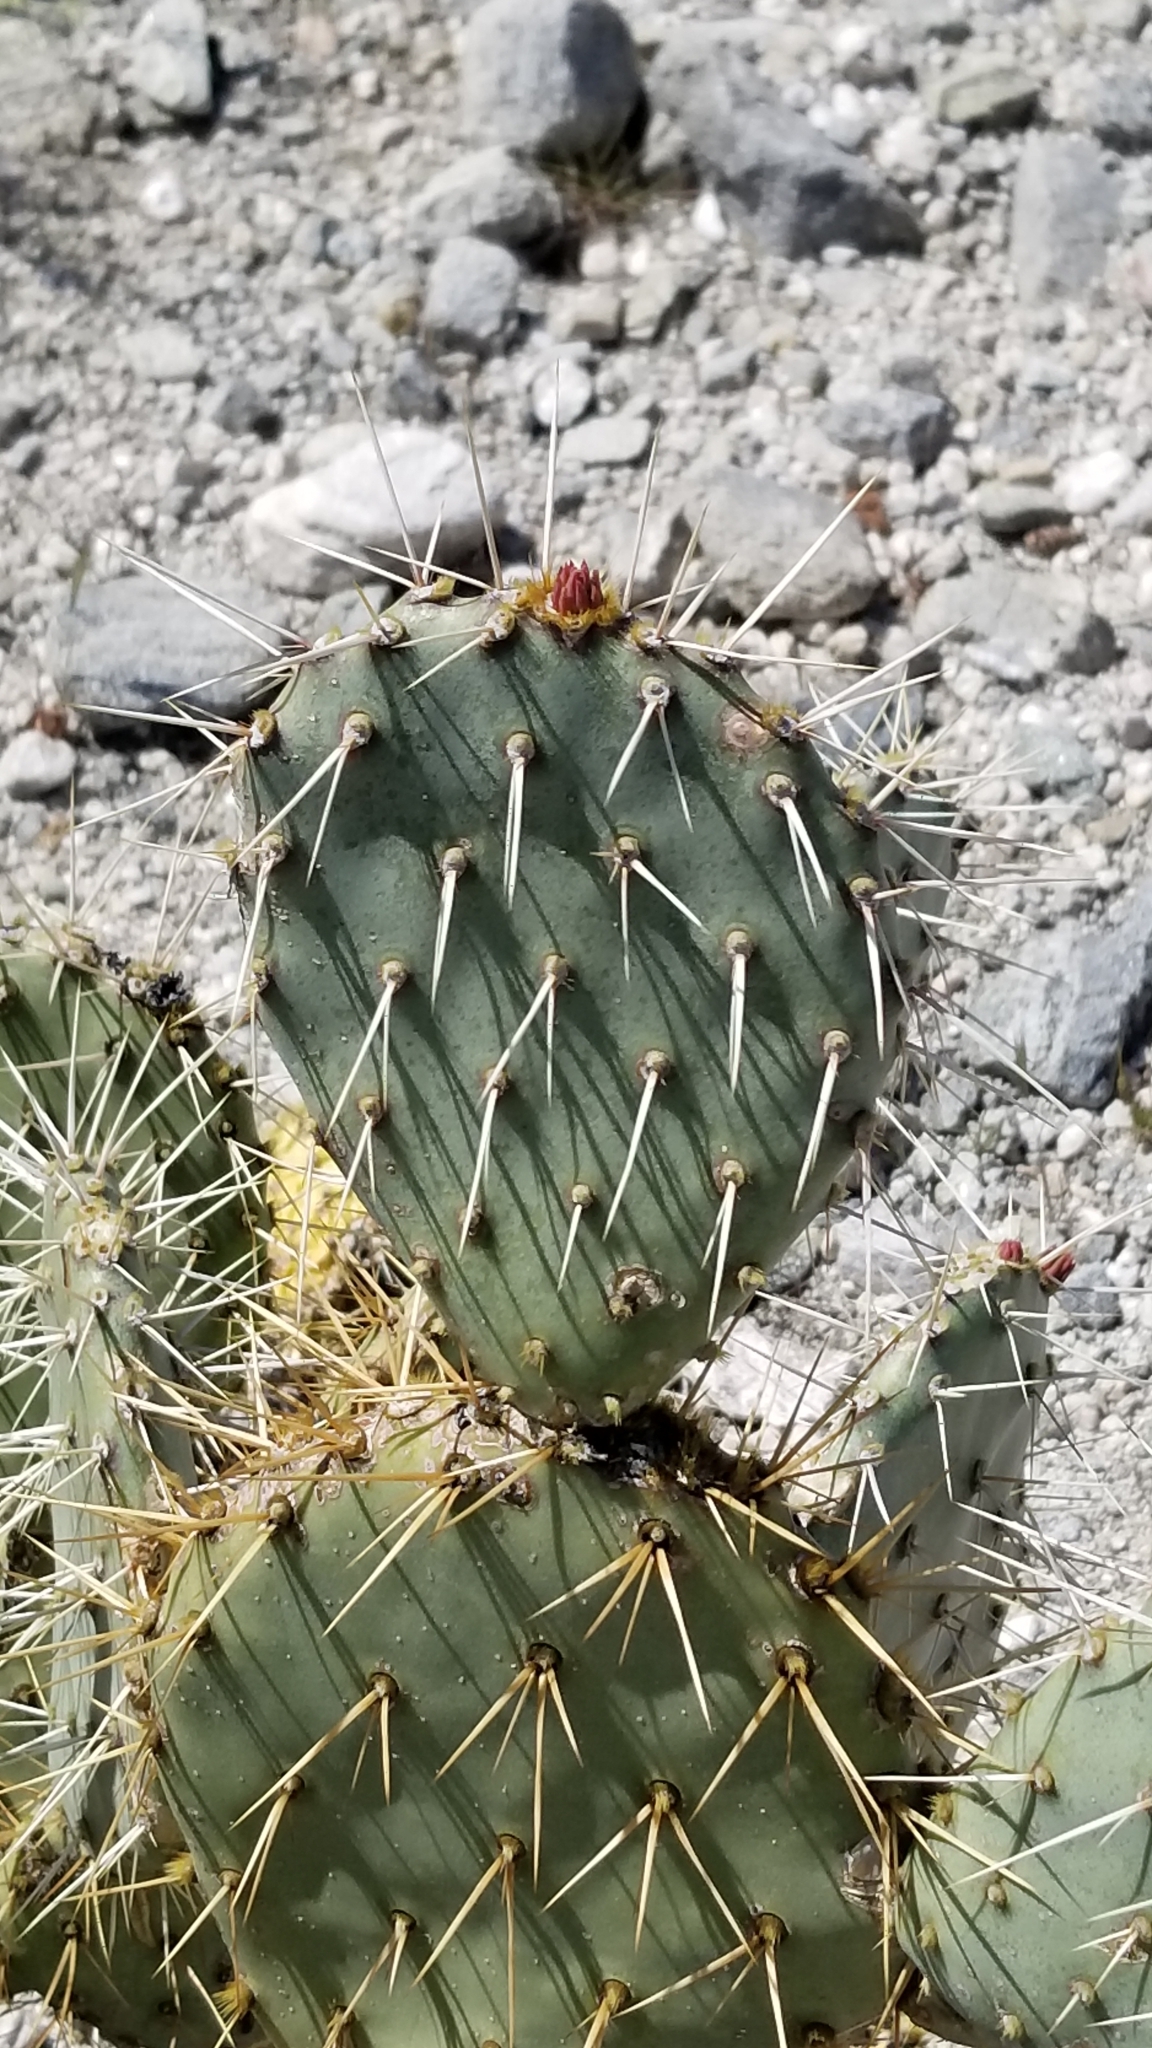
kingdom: Plantae
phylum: Tracheophyta
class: Magnoliopsida
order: Caryophyllales
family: Cactaceae
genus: Opuntia
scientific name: Opuntia phaeacantha
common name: New mexico prickly-pear
